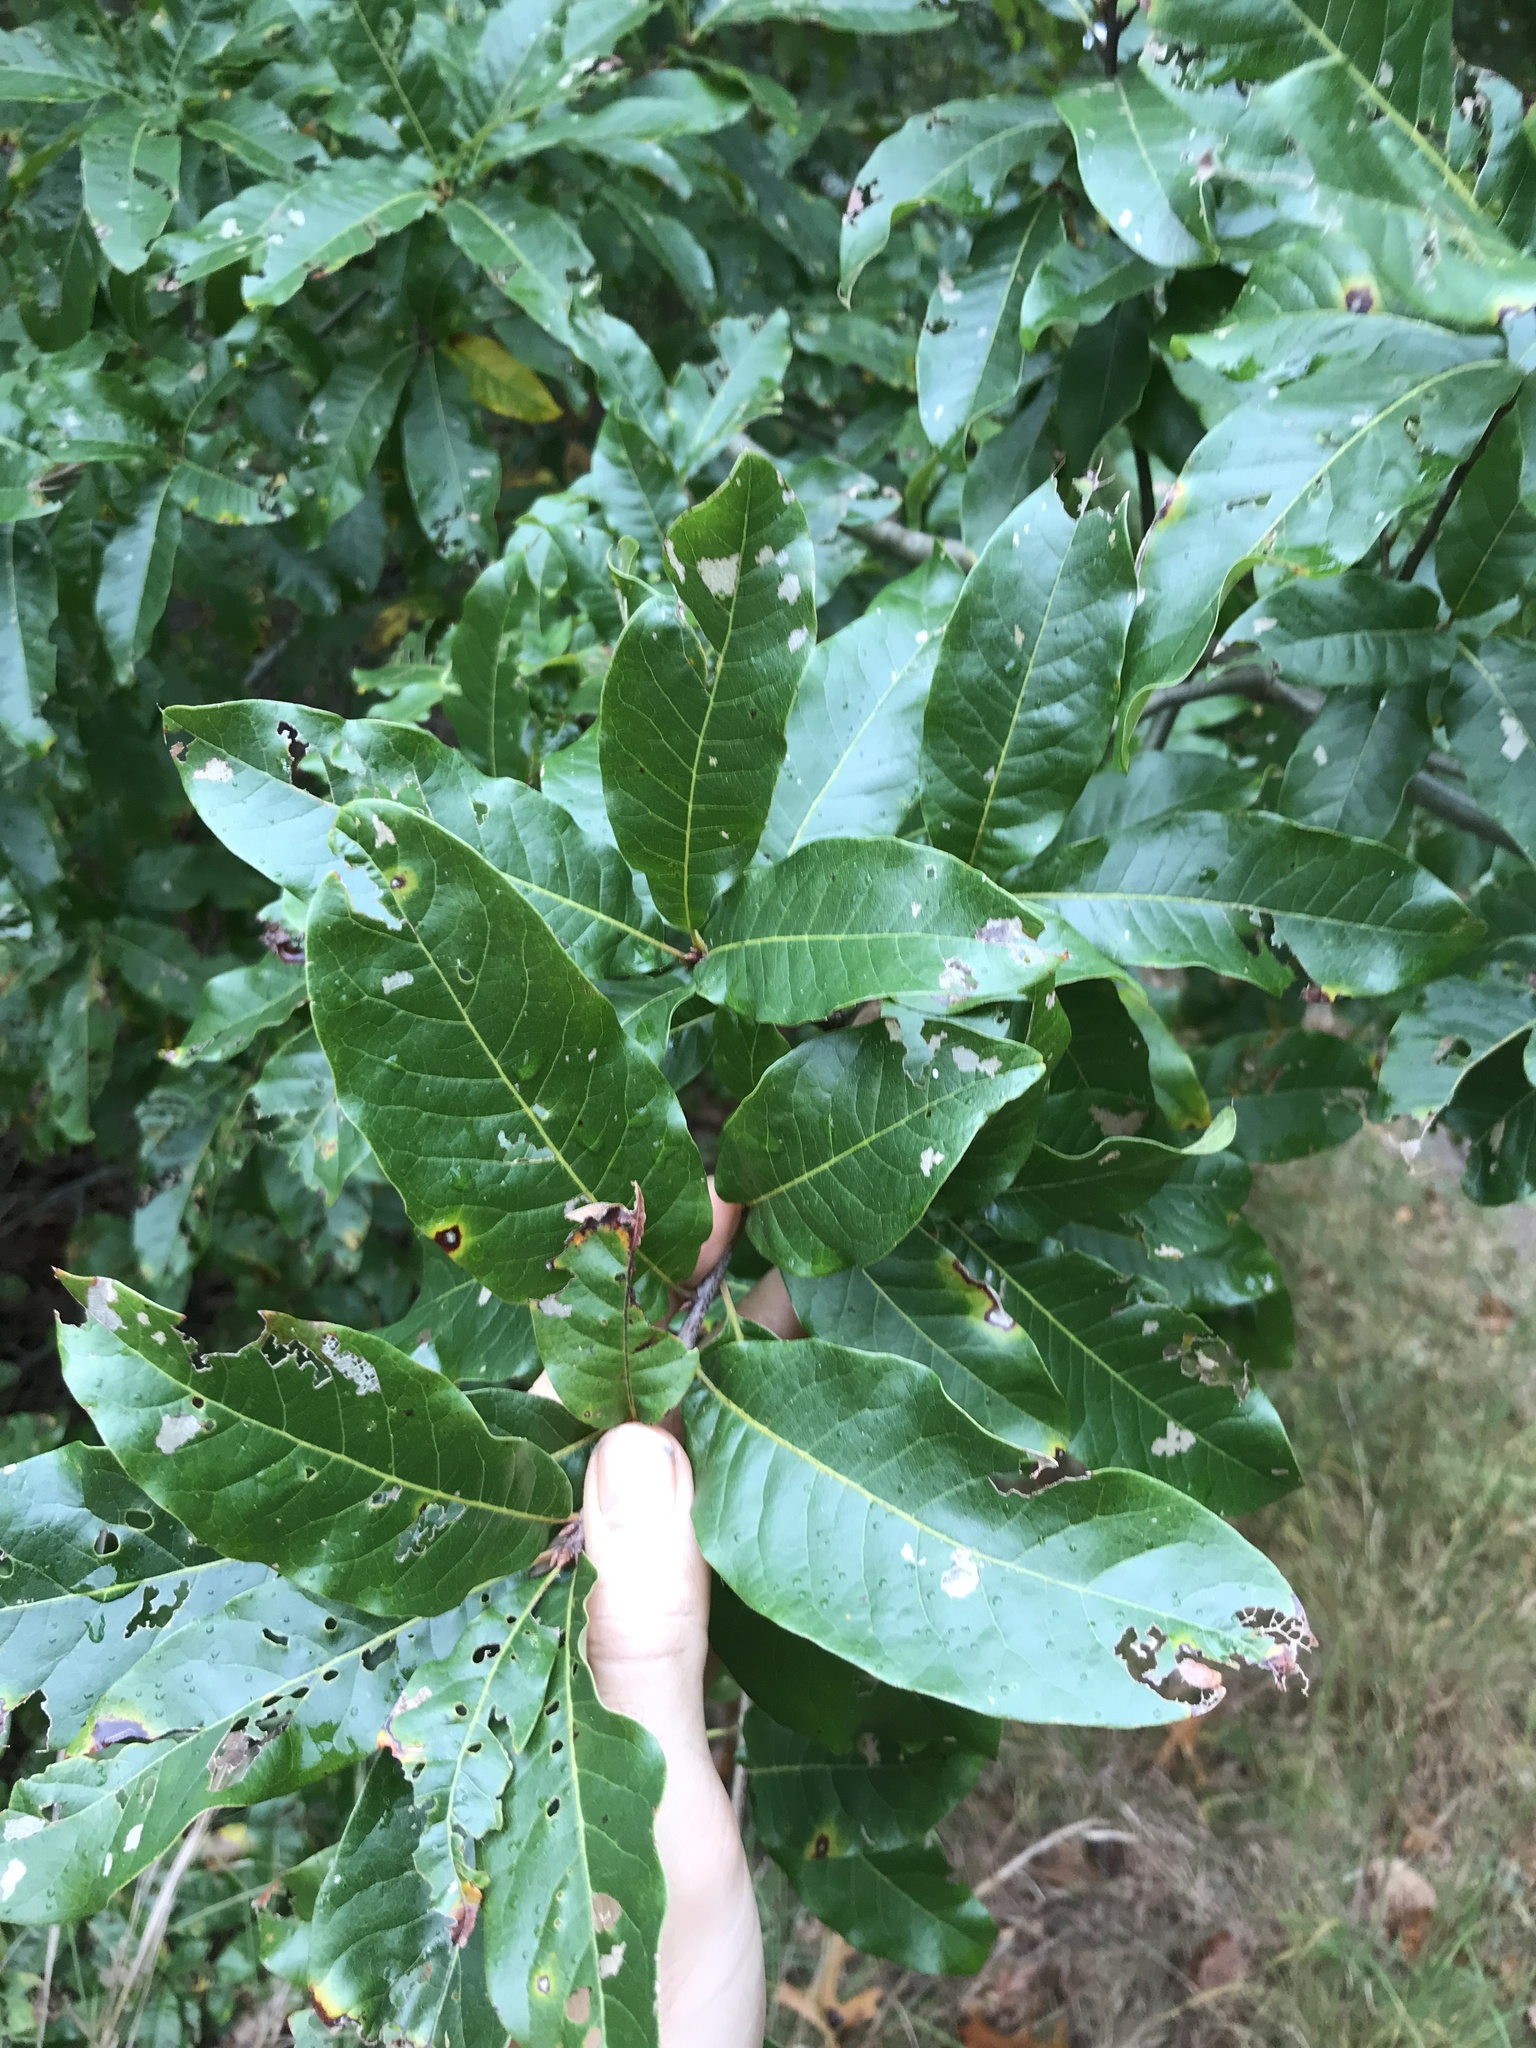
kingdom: Plantae
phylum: Tracheophyta
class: Magnoliopsida
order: Fagales
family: Fagaceae
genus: Quercus
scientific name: Quercus imbricaria
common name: Shingle oak
